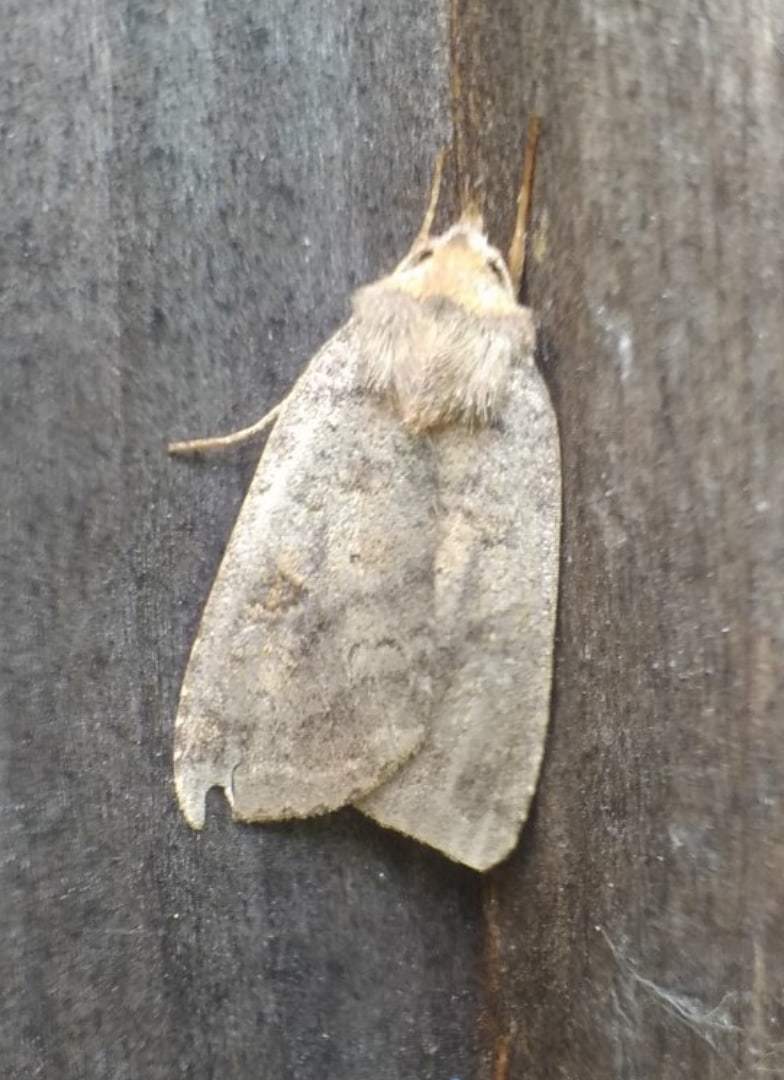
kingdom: Animalia
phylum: Arthropoda
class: Insecta
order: Lepidoptera
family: Noctuidae
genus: Paradiarsia
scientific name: Paradiarsia punicea
